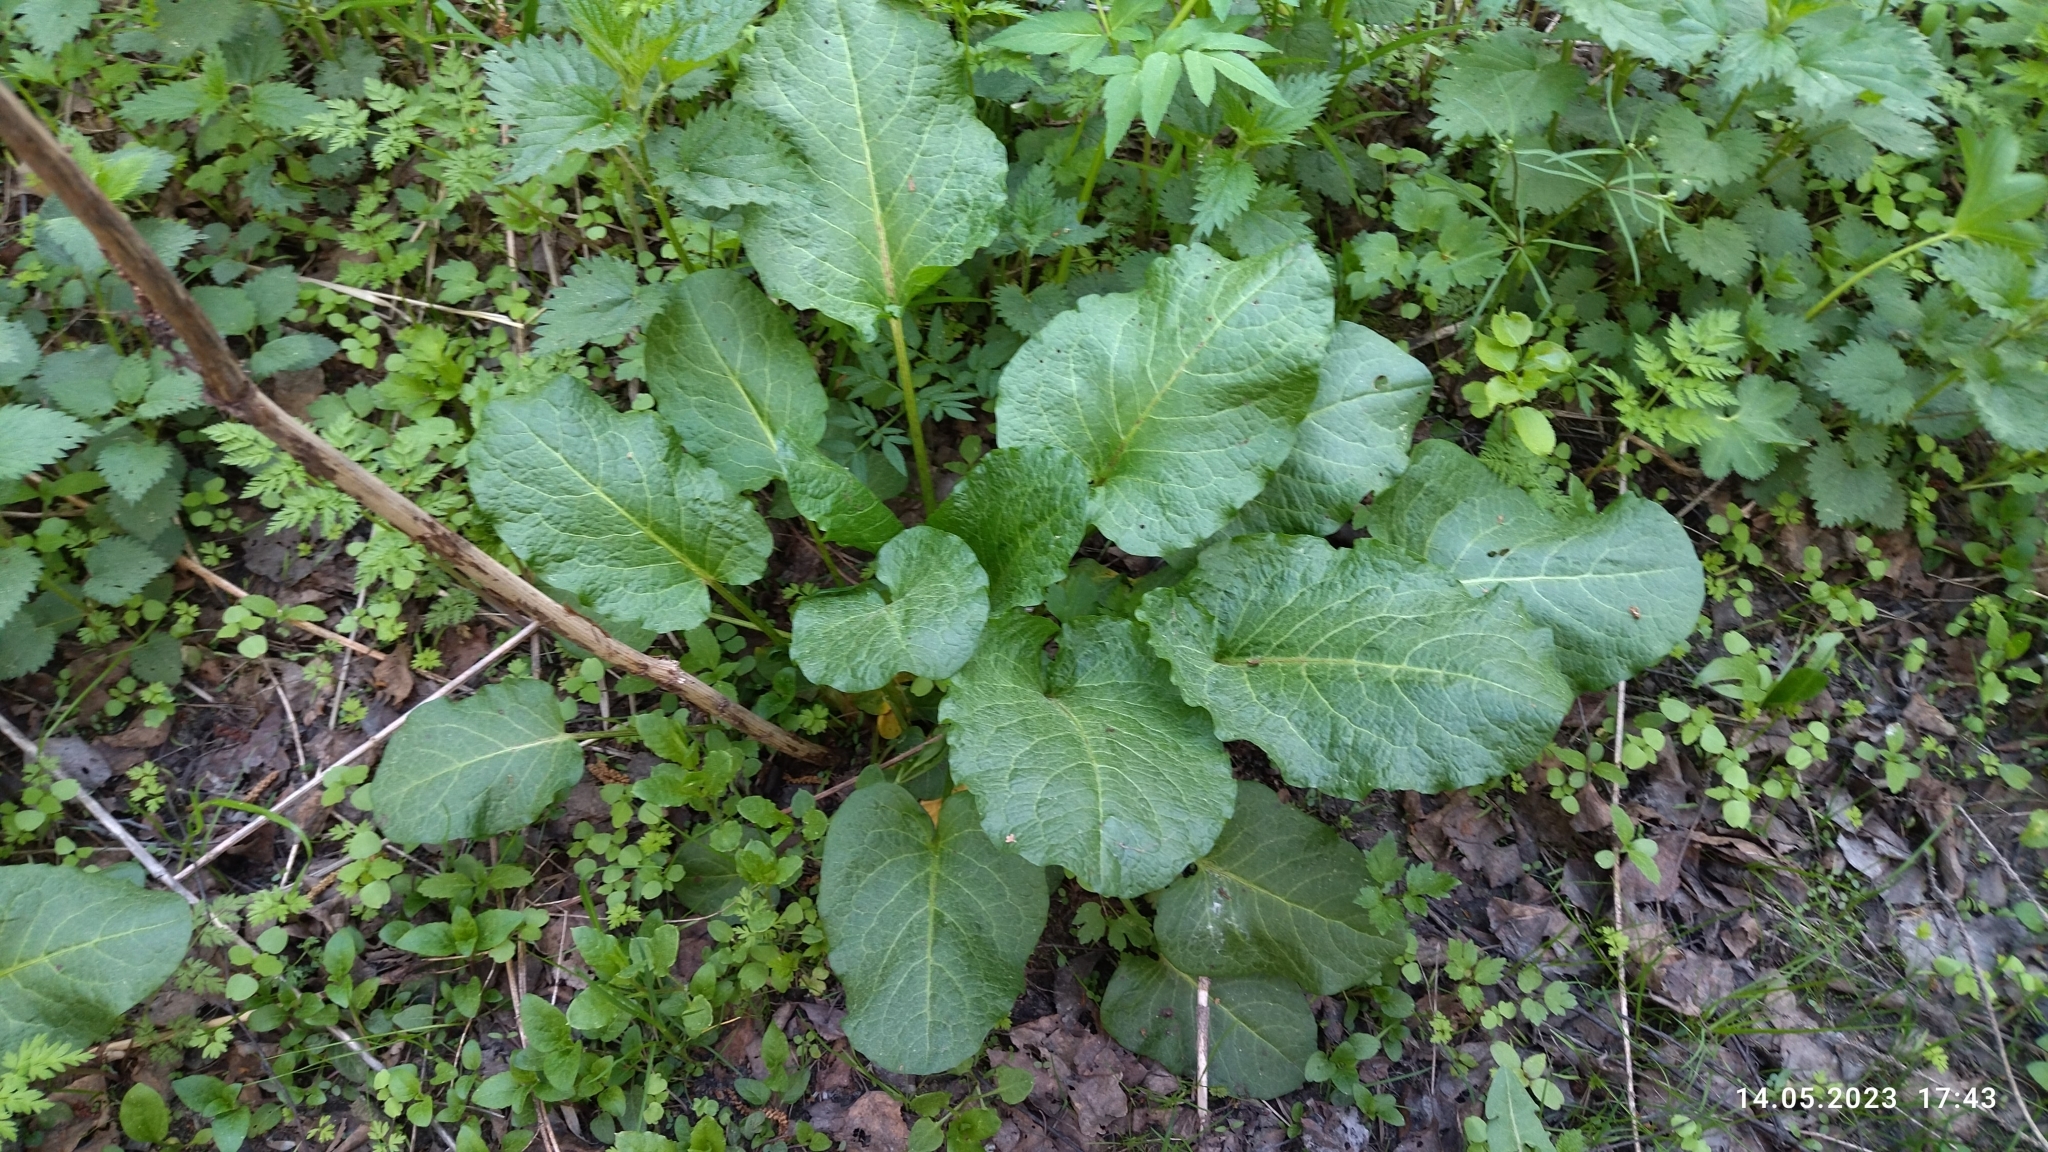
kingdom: Plantae
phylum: Tracheophyta
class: Magnoliopsida
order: Caryophyllales
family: Polygonaceae
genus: Rumex
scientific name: Rumex obtusifolius
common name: Bitter dock
